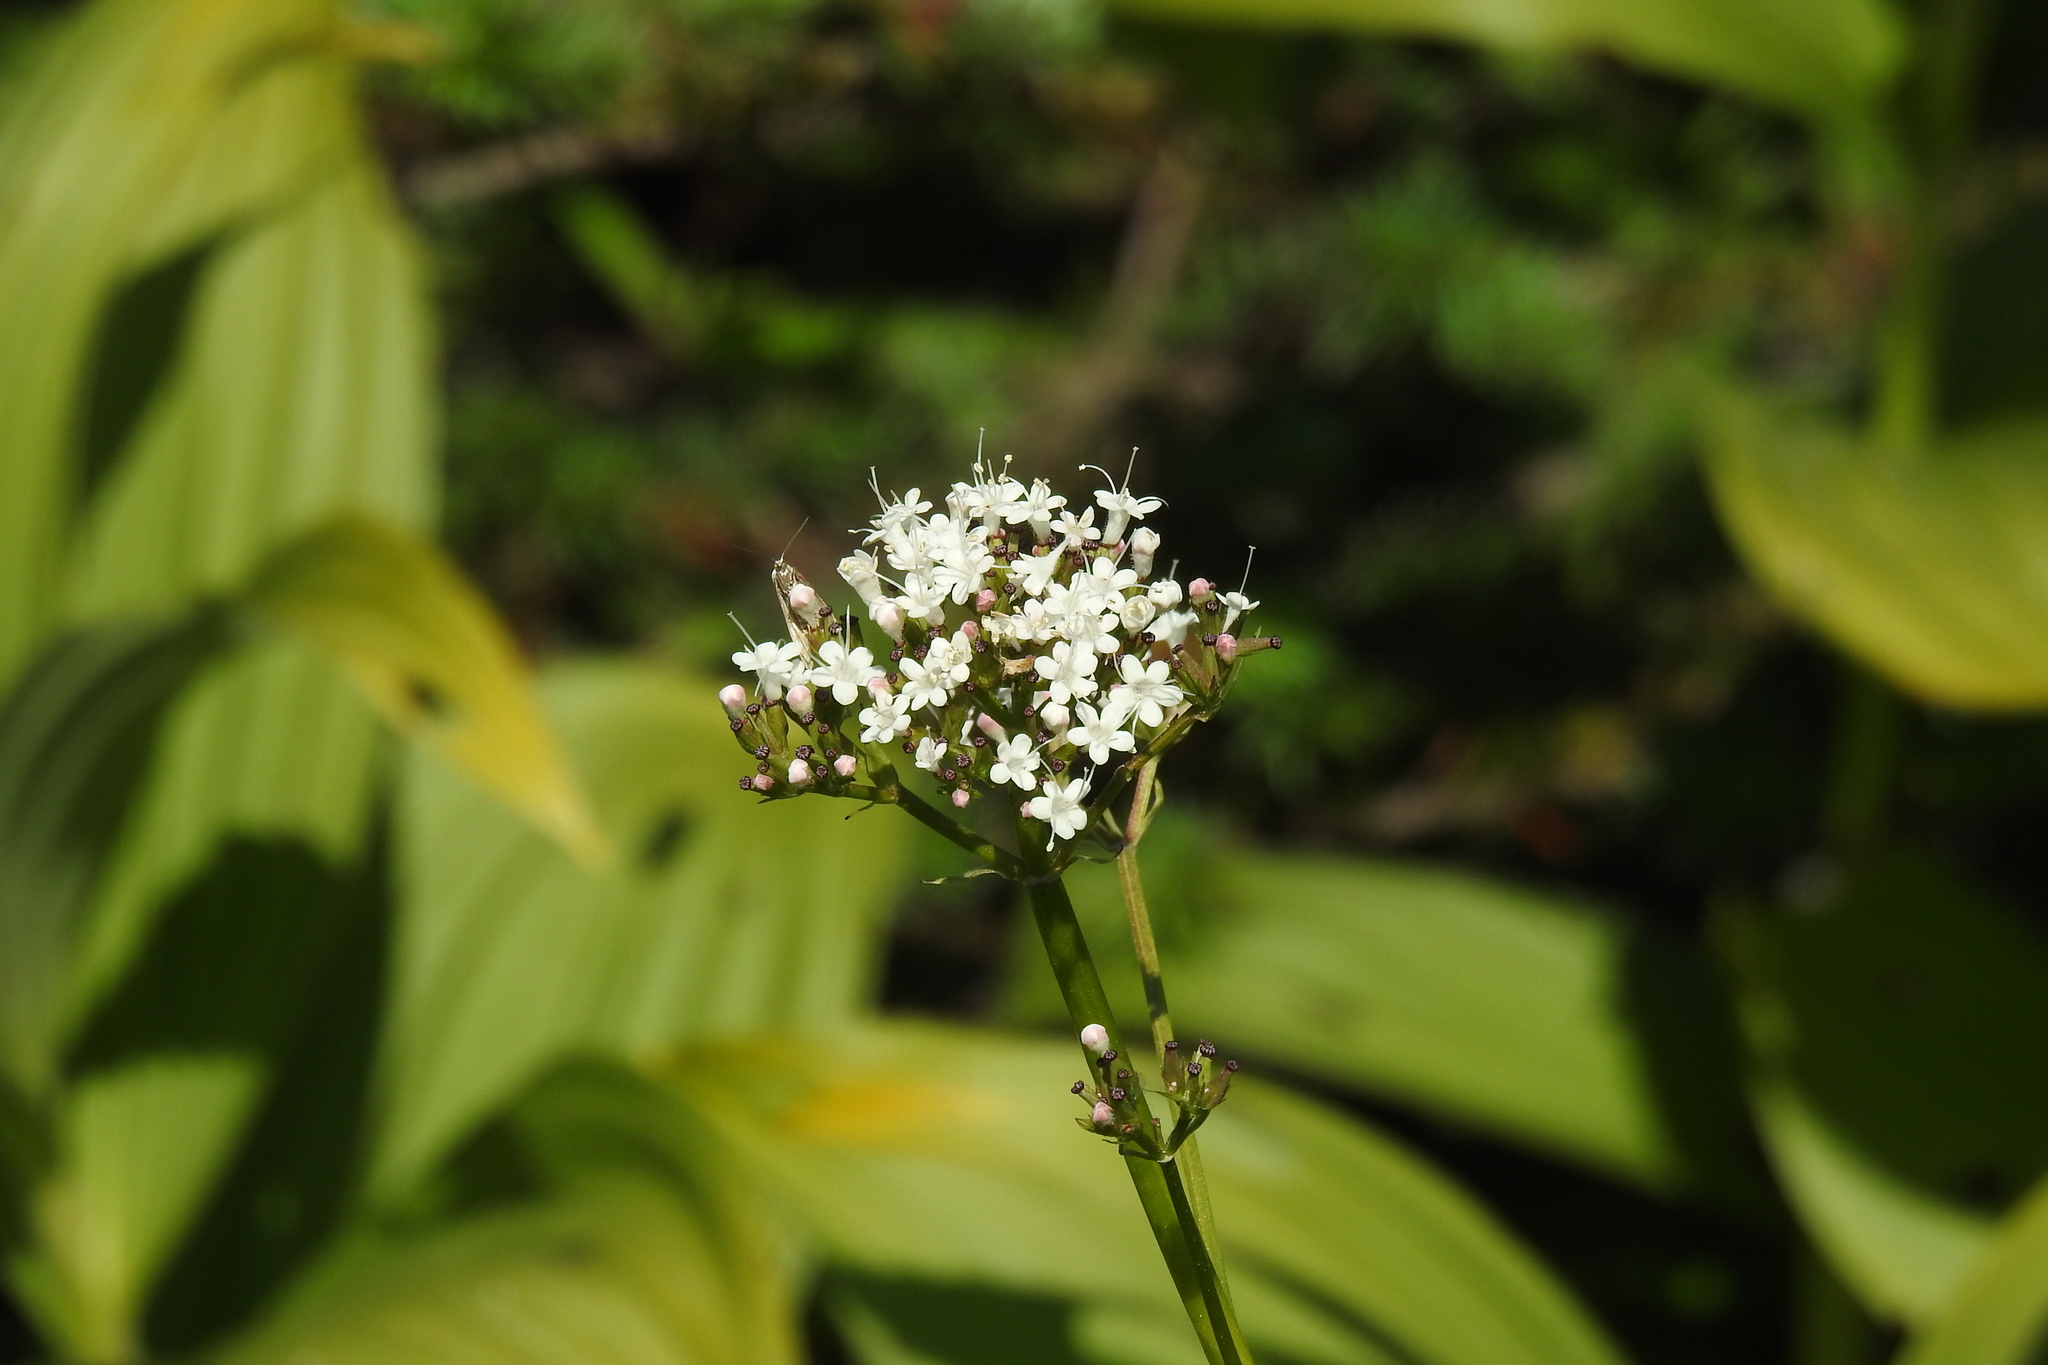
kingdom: Plantae
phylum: Tracheophyta
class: Magnoliopsida
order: Dipsacales
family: Caprifoliaceae
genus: Valeriana
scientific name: Valeriana sitchensis
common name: Pacific valerian
